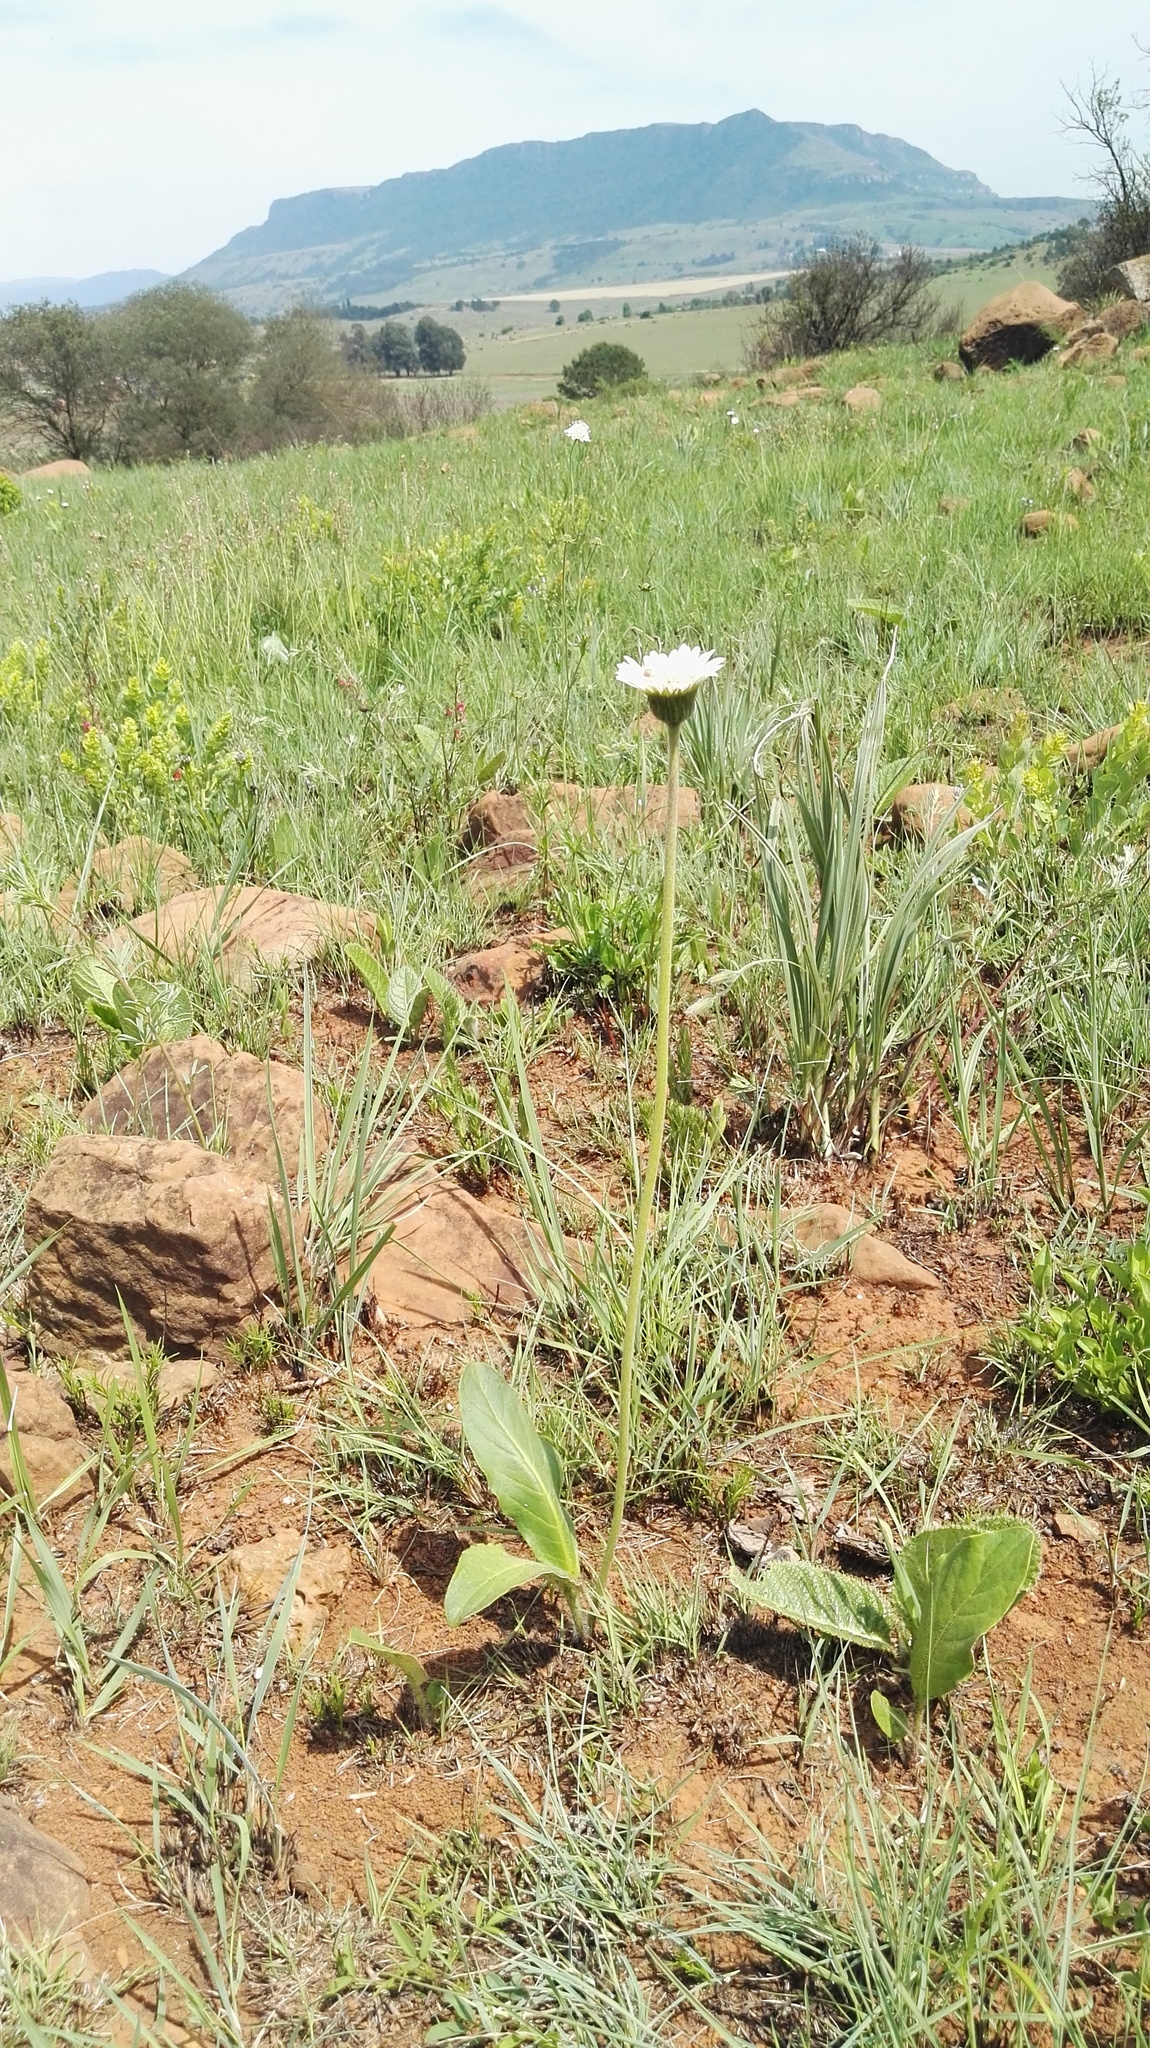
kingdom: Plantae
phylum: Tracheophyta
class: Magnoliopsida
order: Asterales
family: Asteraceae
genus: Gerbera
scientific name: Gerbera ambigua
